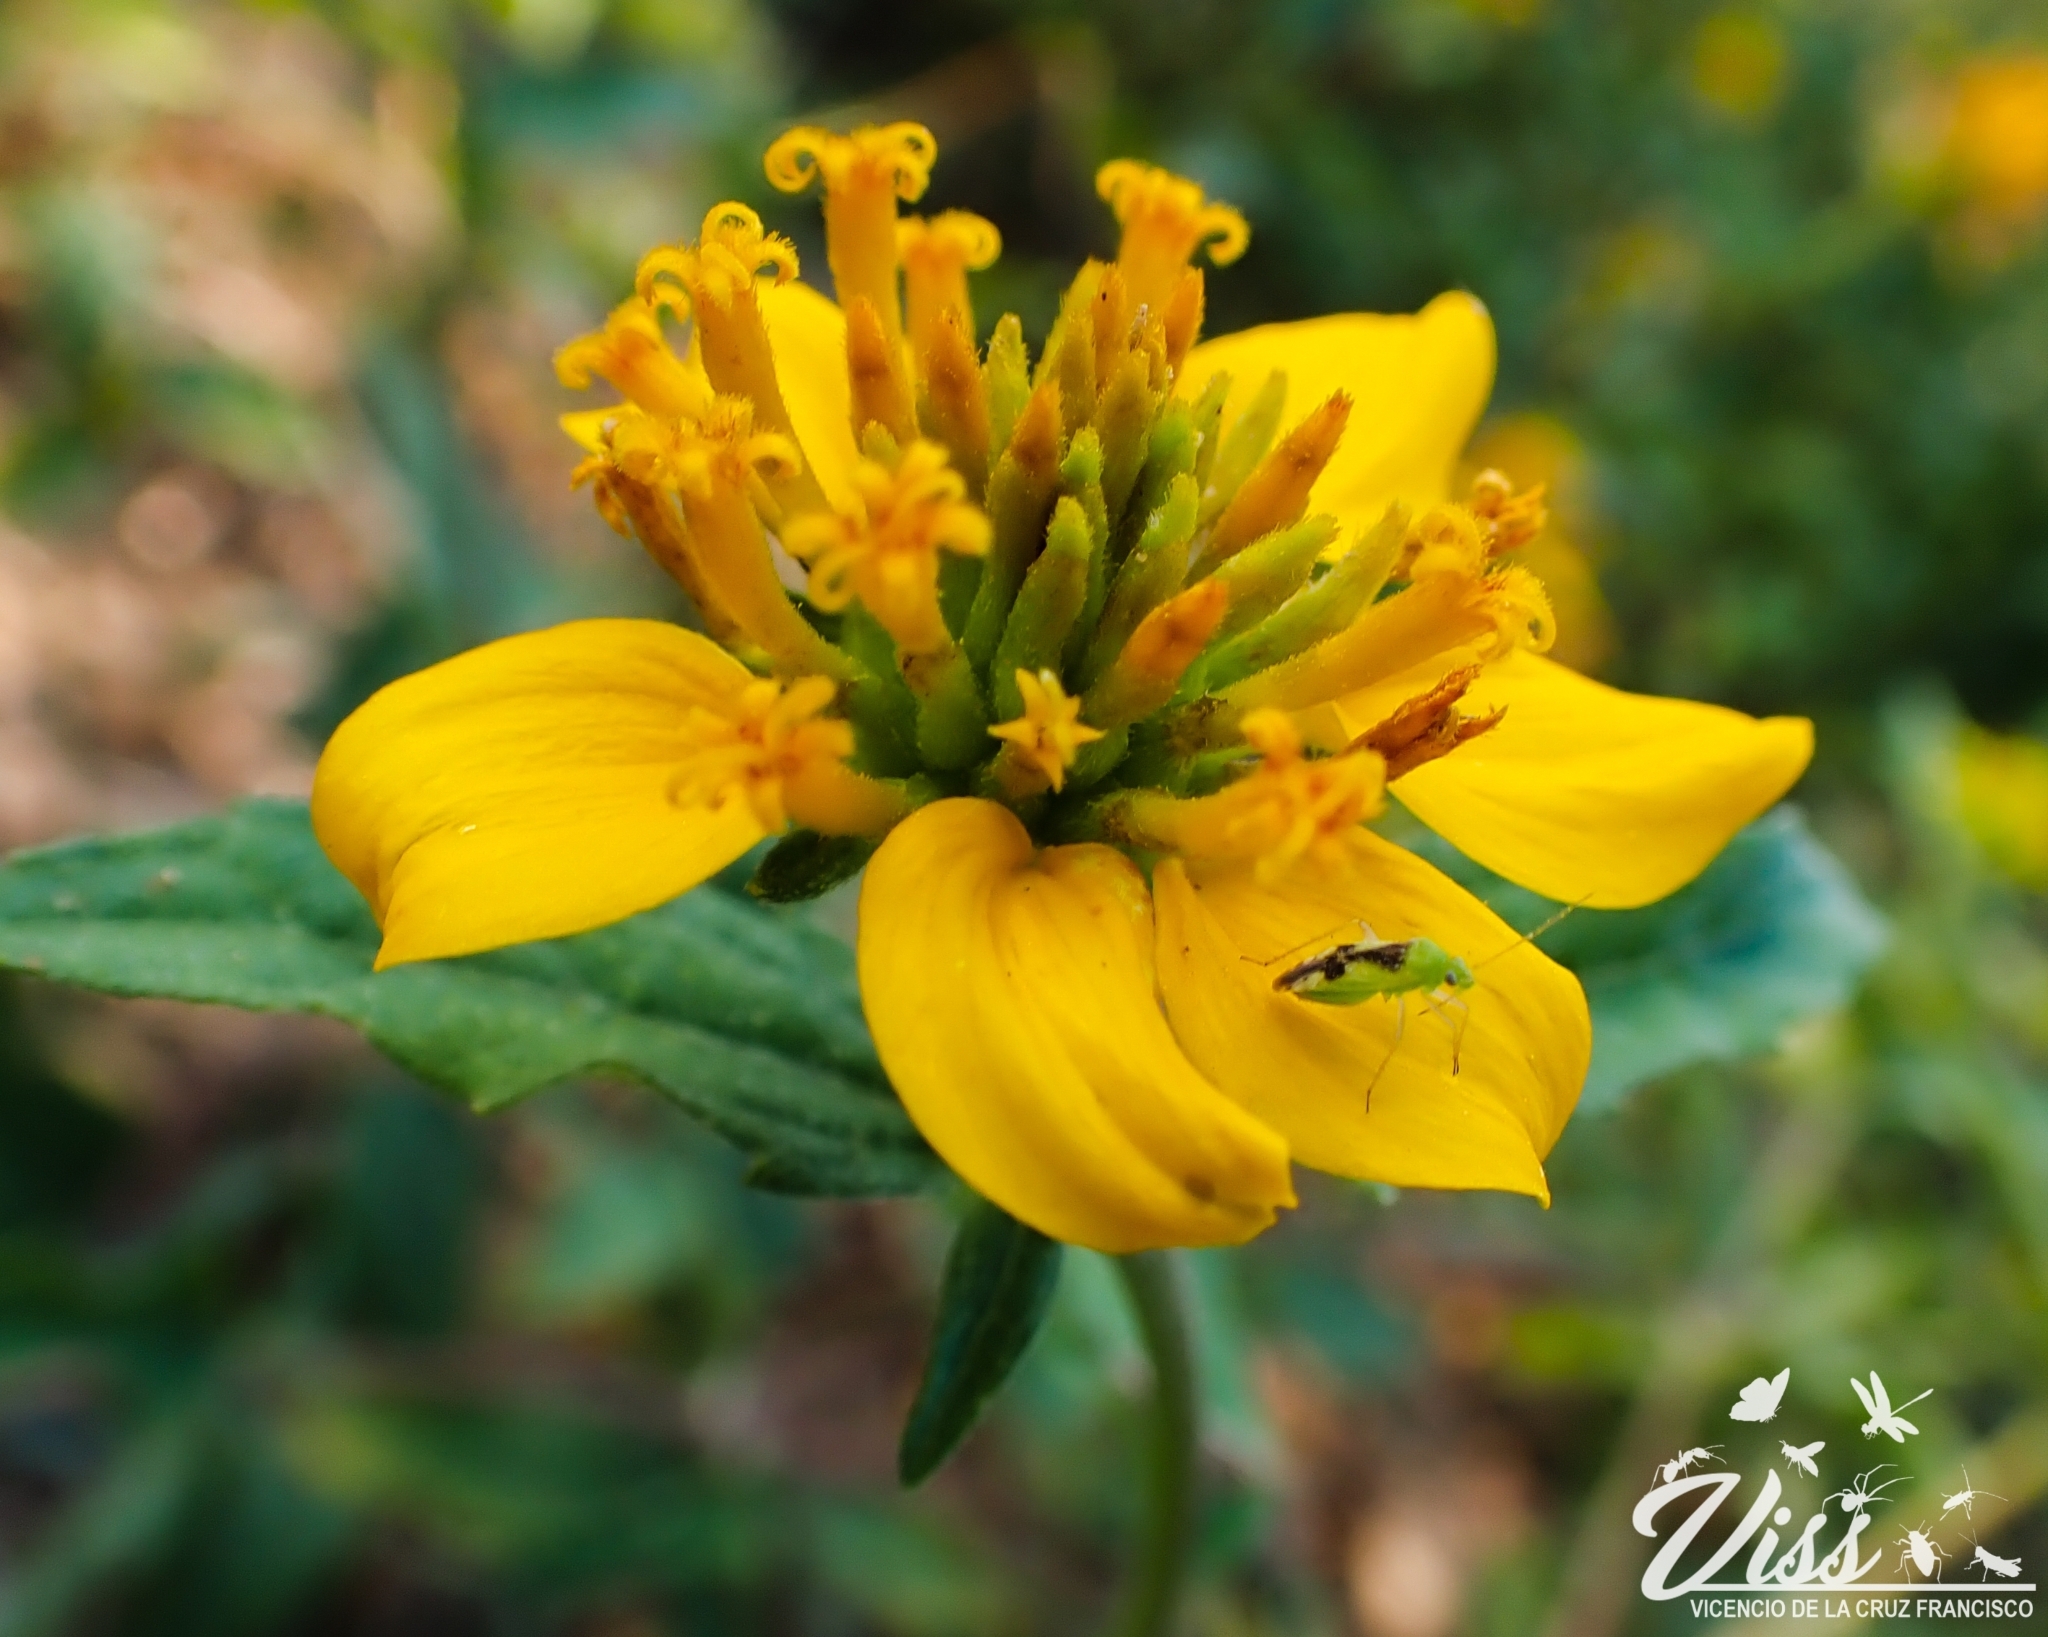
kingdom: Plantae
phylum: Tracheophyta
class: Magnoliopsida
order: Asterales
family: Asteraceae
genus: Sclerocarpus
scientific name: Sclerocarpus uniserialis
